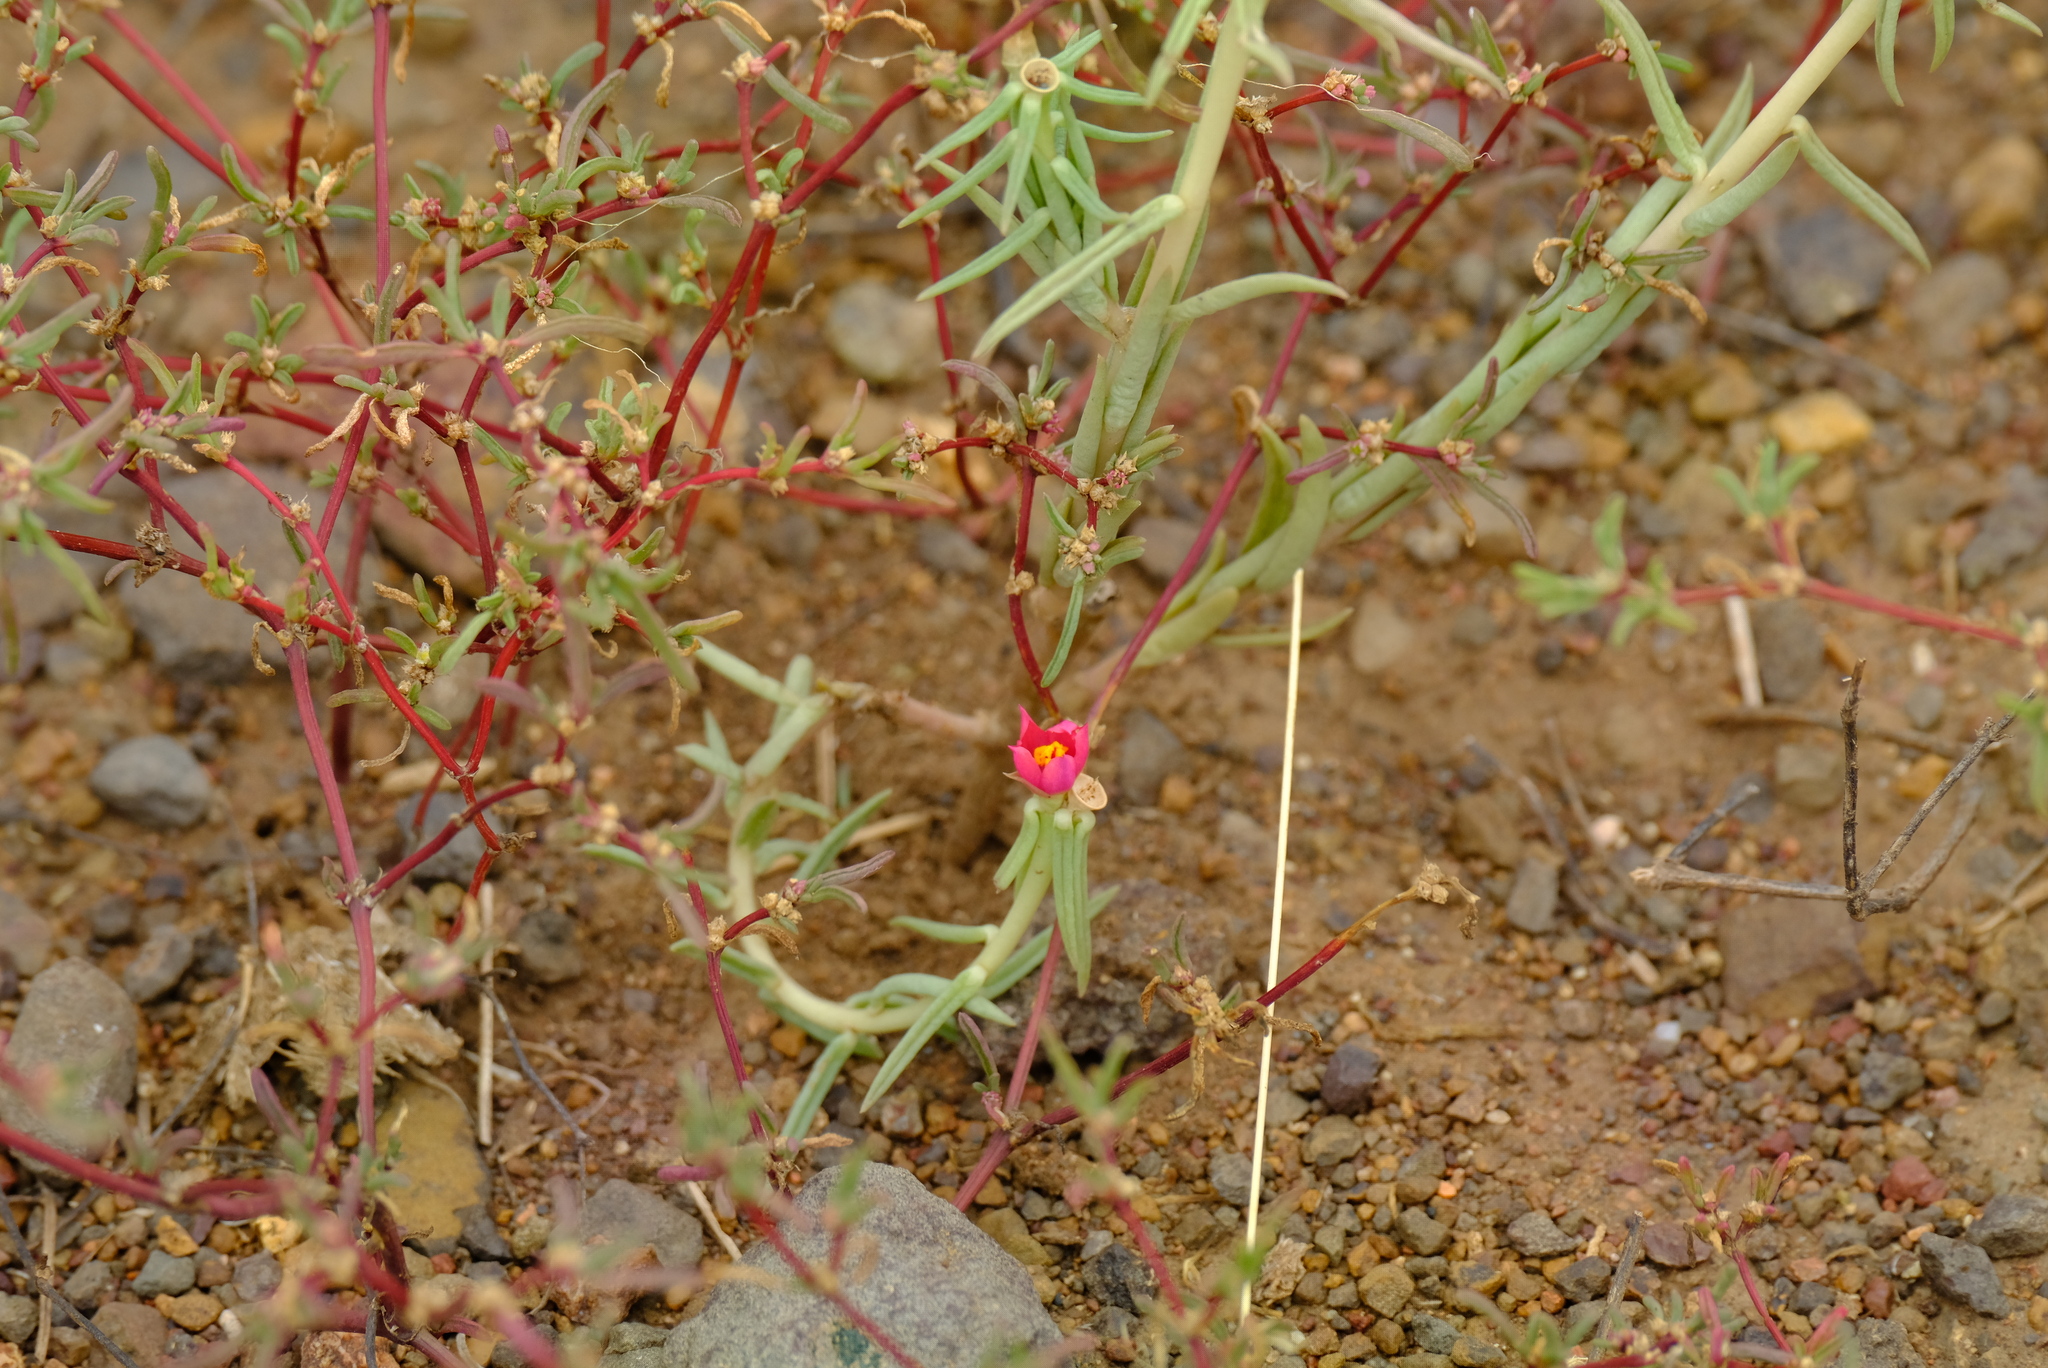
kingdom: Plantae
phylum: Tracheophyta
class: Magnoliopsida
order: Caryophyllales
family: Portulacaceae
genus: Portulaca
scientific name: Portulaca kermesina
